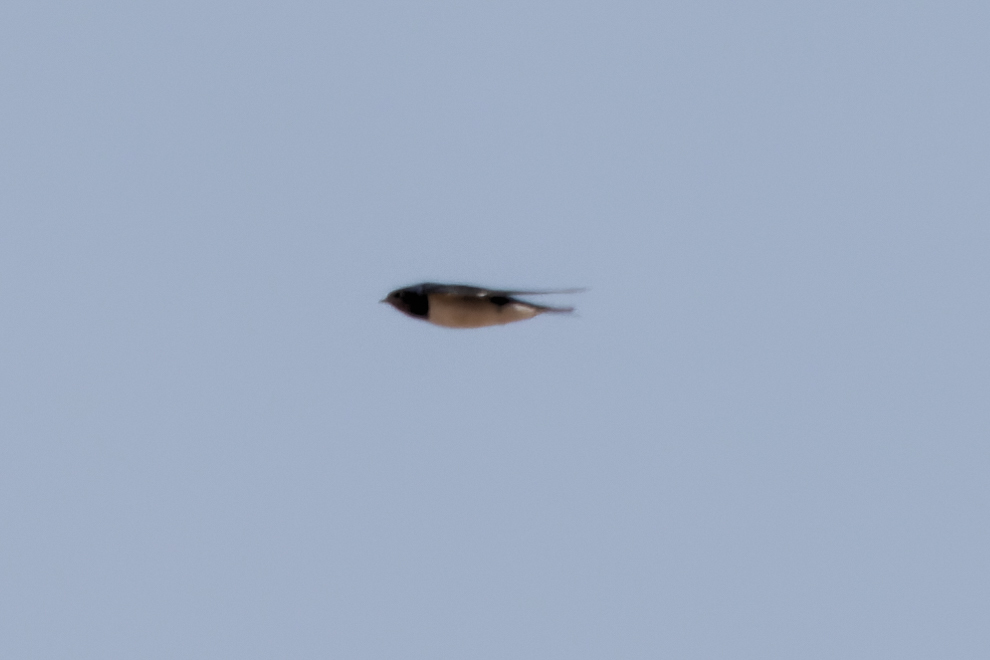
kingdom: Animalia
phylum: Chordata
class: Aves
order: Passeriformes
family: Hirundinidae
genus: Hirundo
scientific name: Hirundo rustica
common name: Barn swallow
